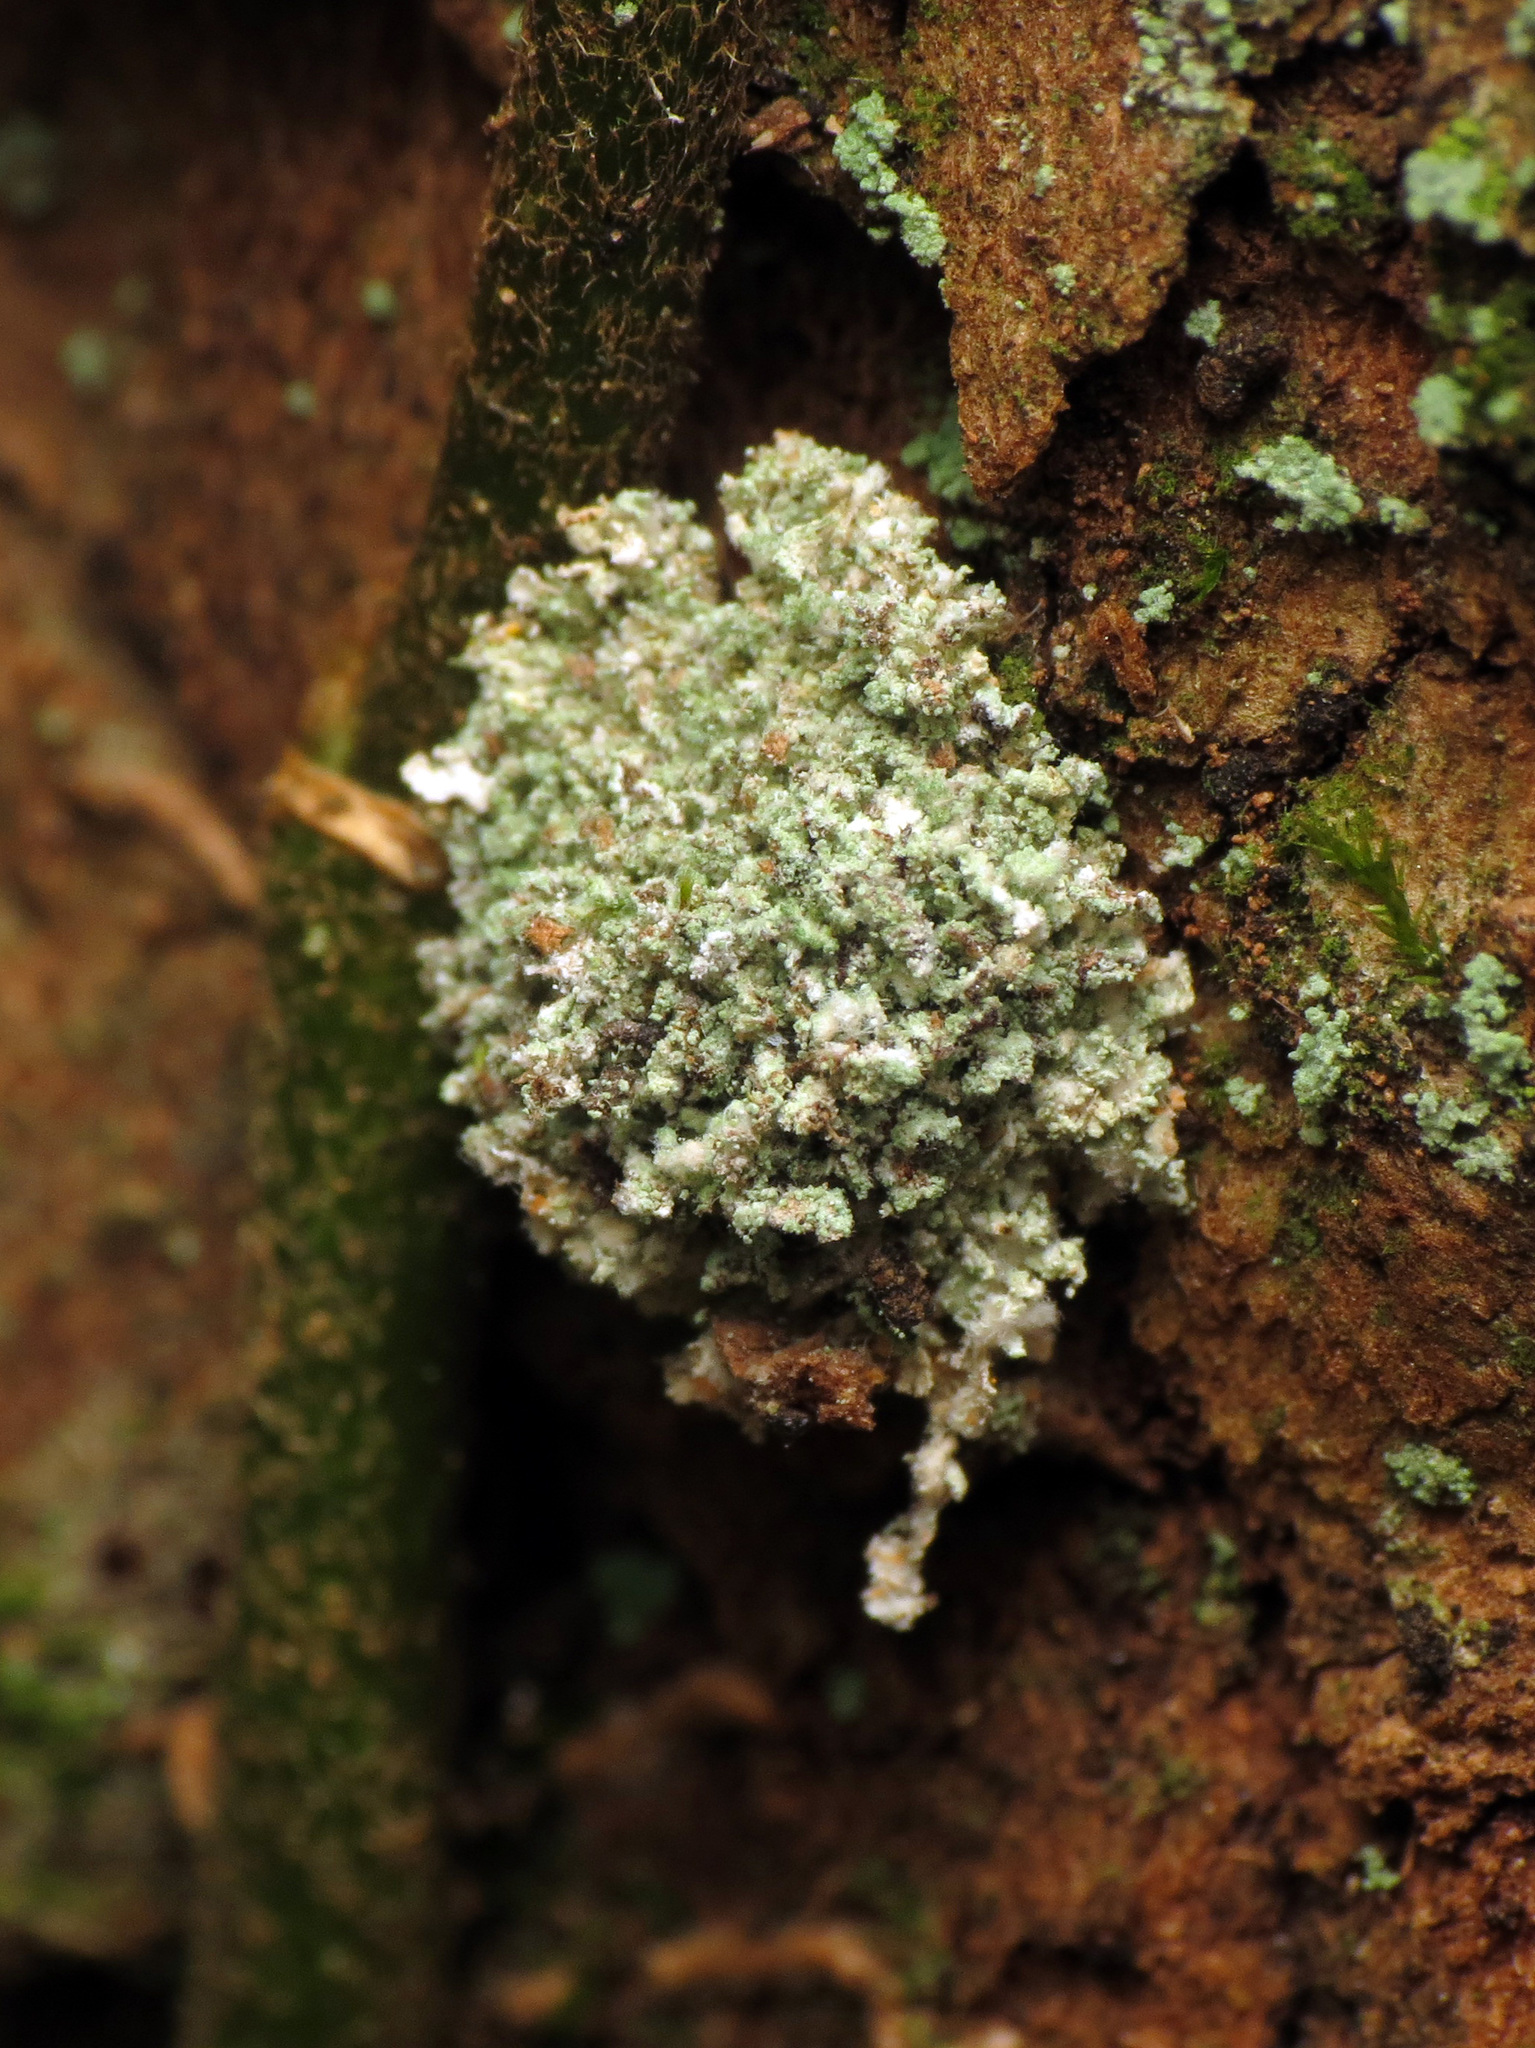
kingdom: Animalia
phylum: Arthropoda
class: Insecta
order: Neuroptera
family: Chrysopidae
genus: Leucochrysa
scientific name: Leucochrysa pavida
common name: Lichen-carrying green lacewing
